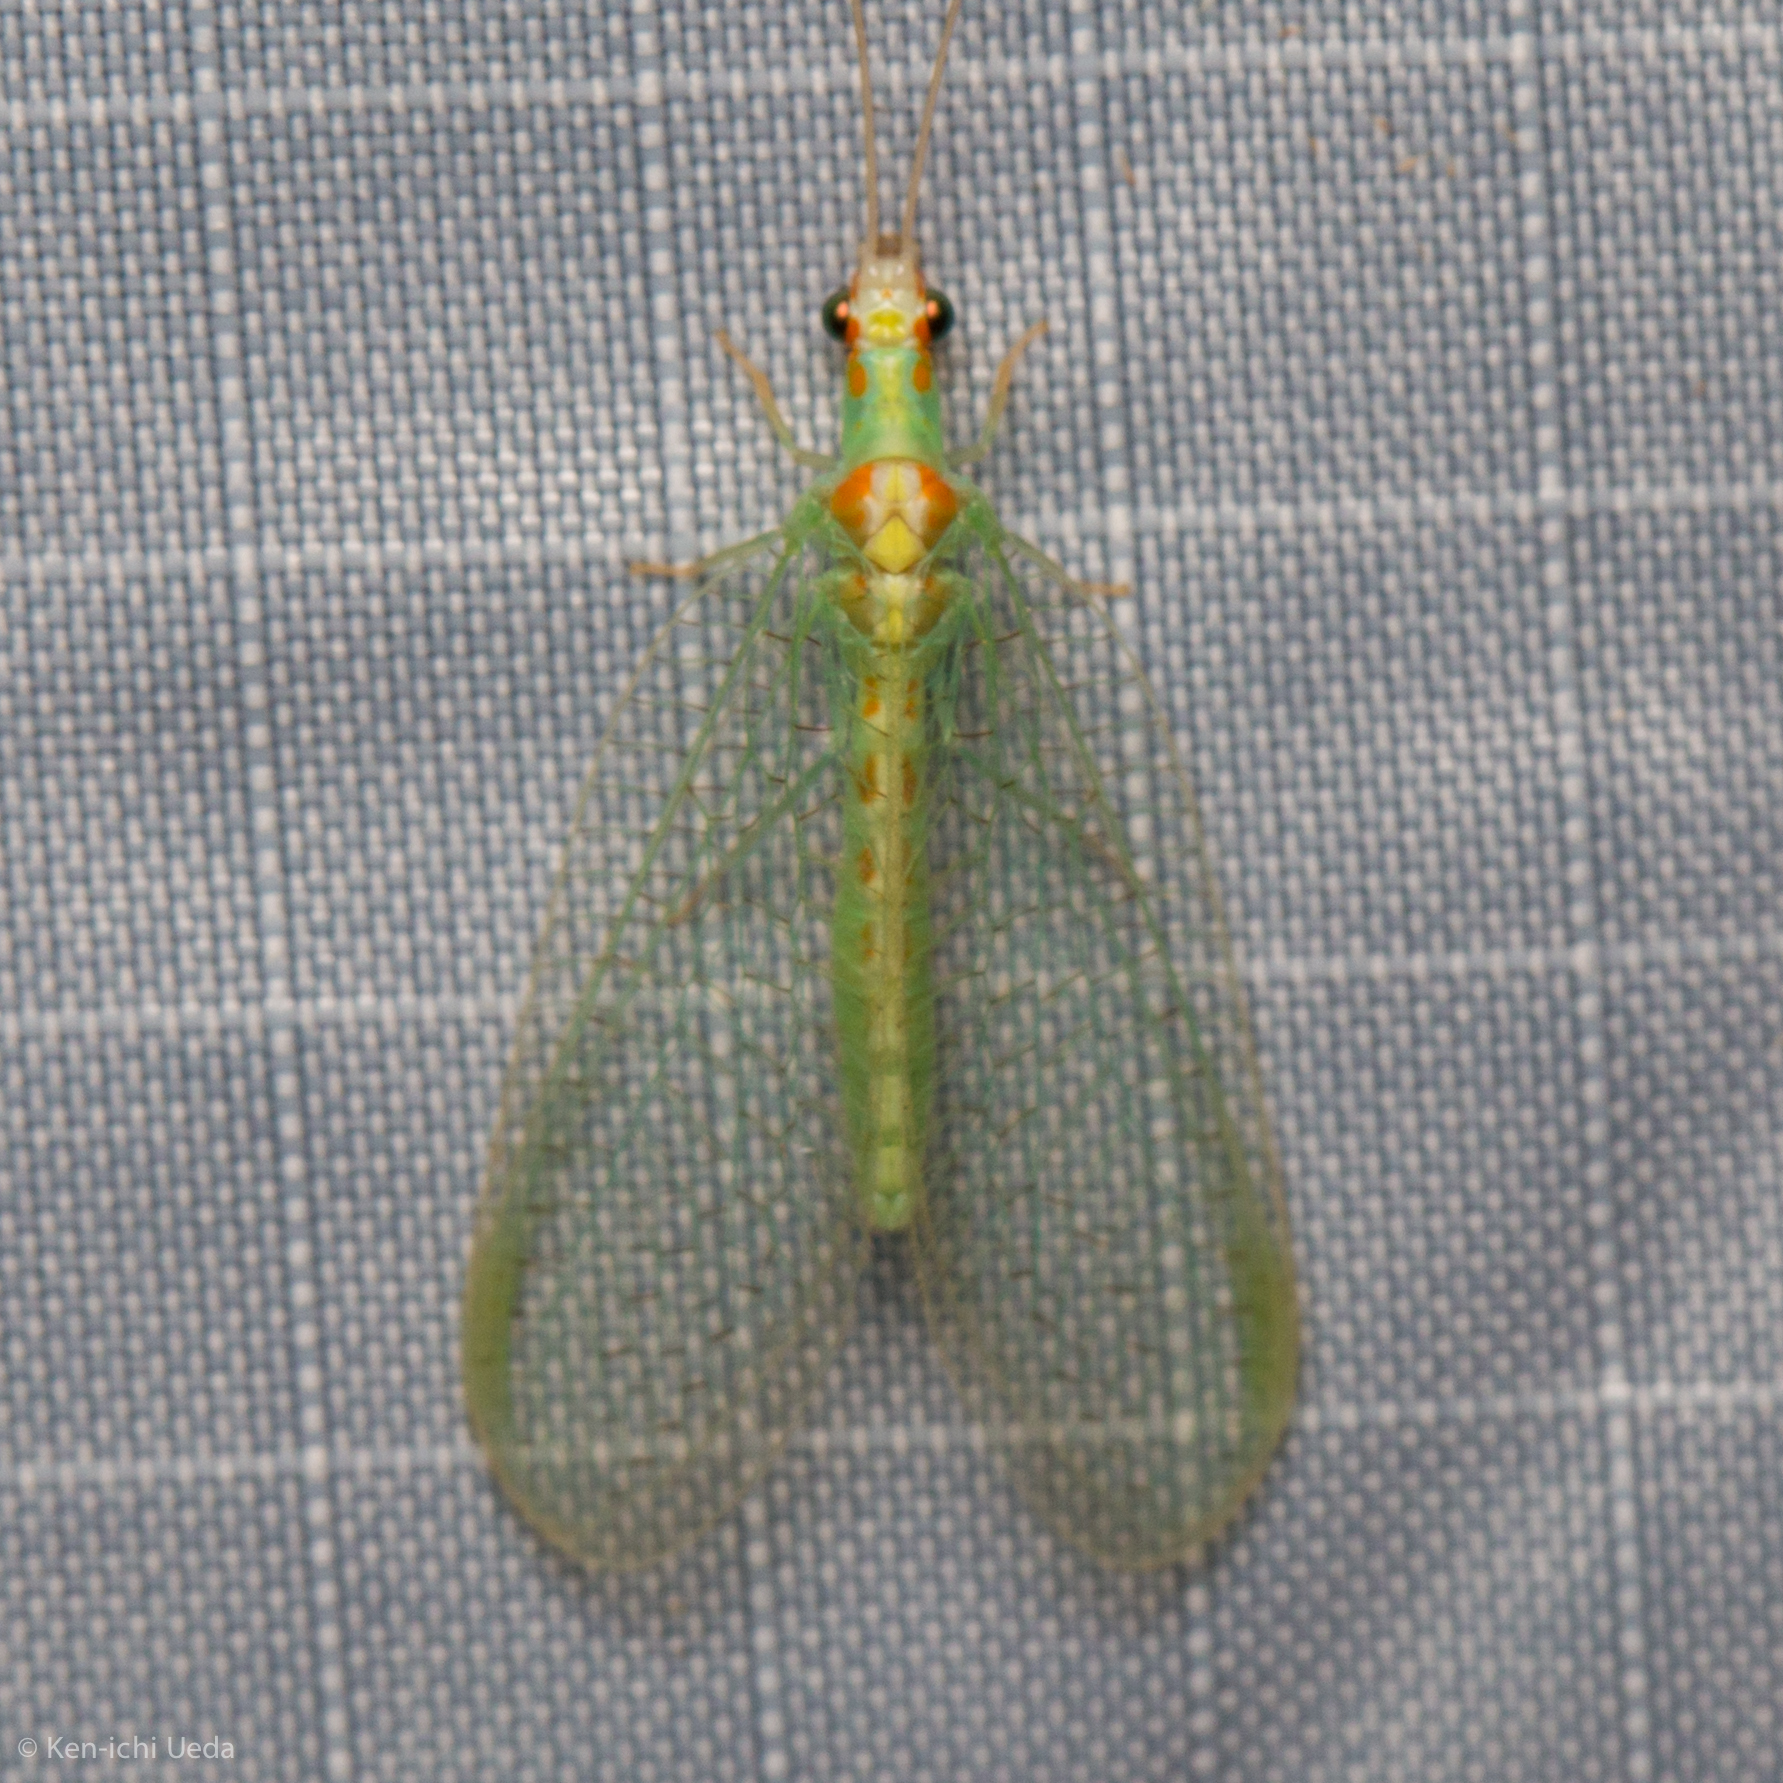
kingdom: Animalia
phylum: Arthropoda
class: Insecta
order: Neuroptera
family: Chrysopidae
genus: Chrysopa
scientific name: Chrysopa quadripunctata
